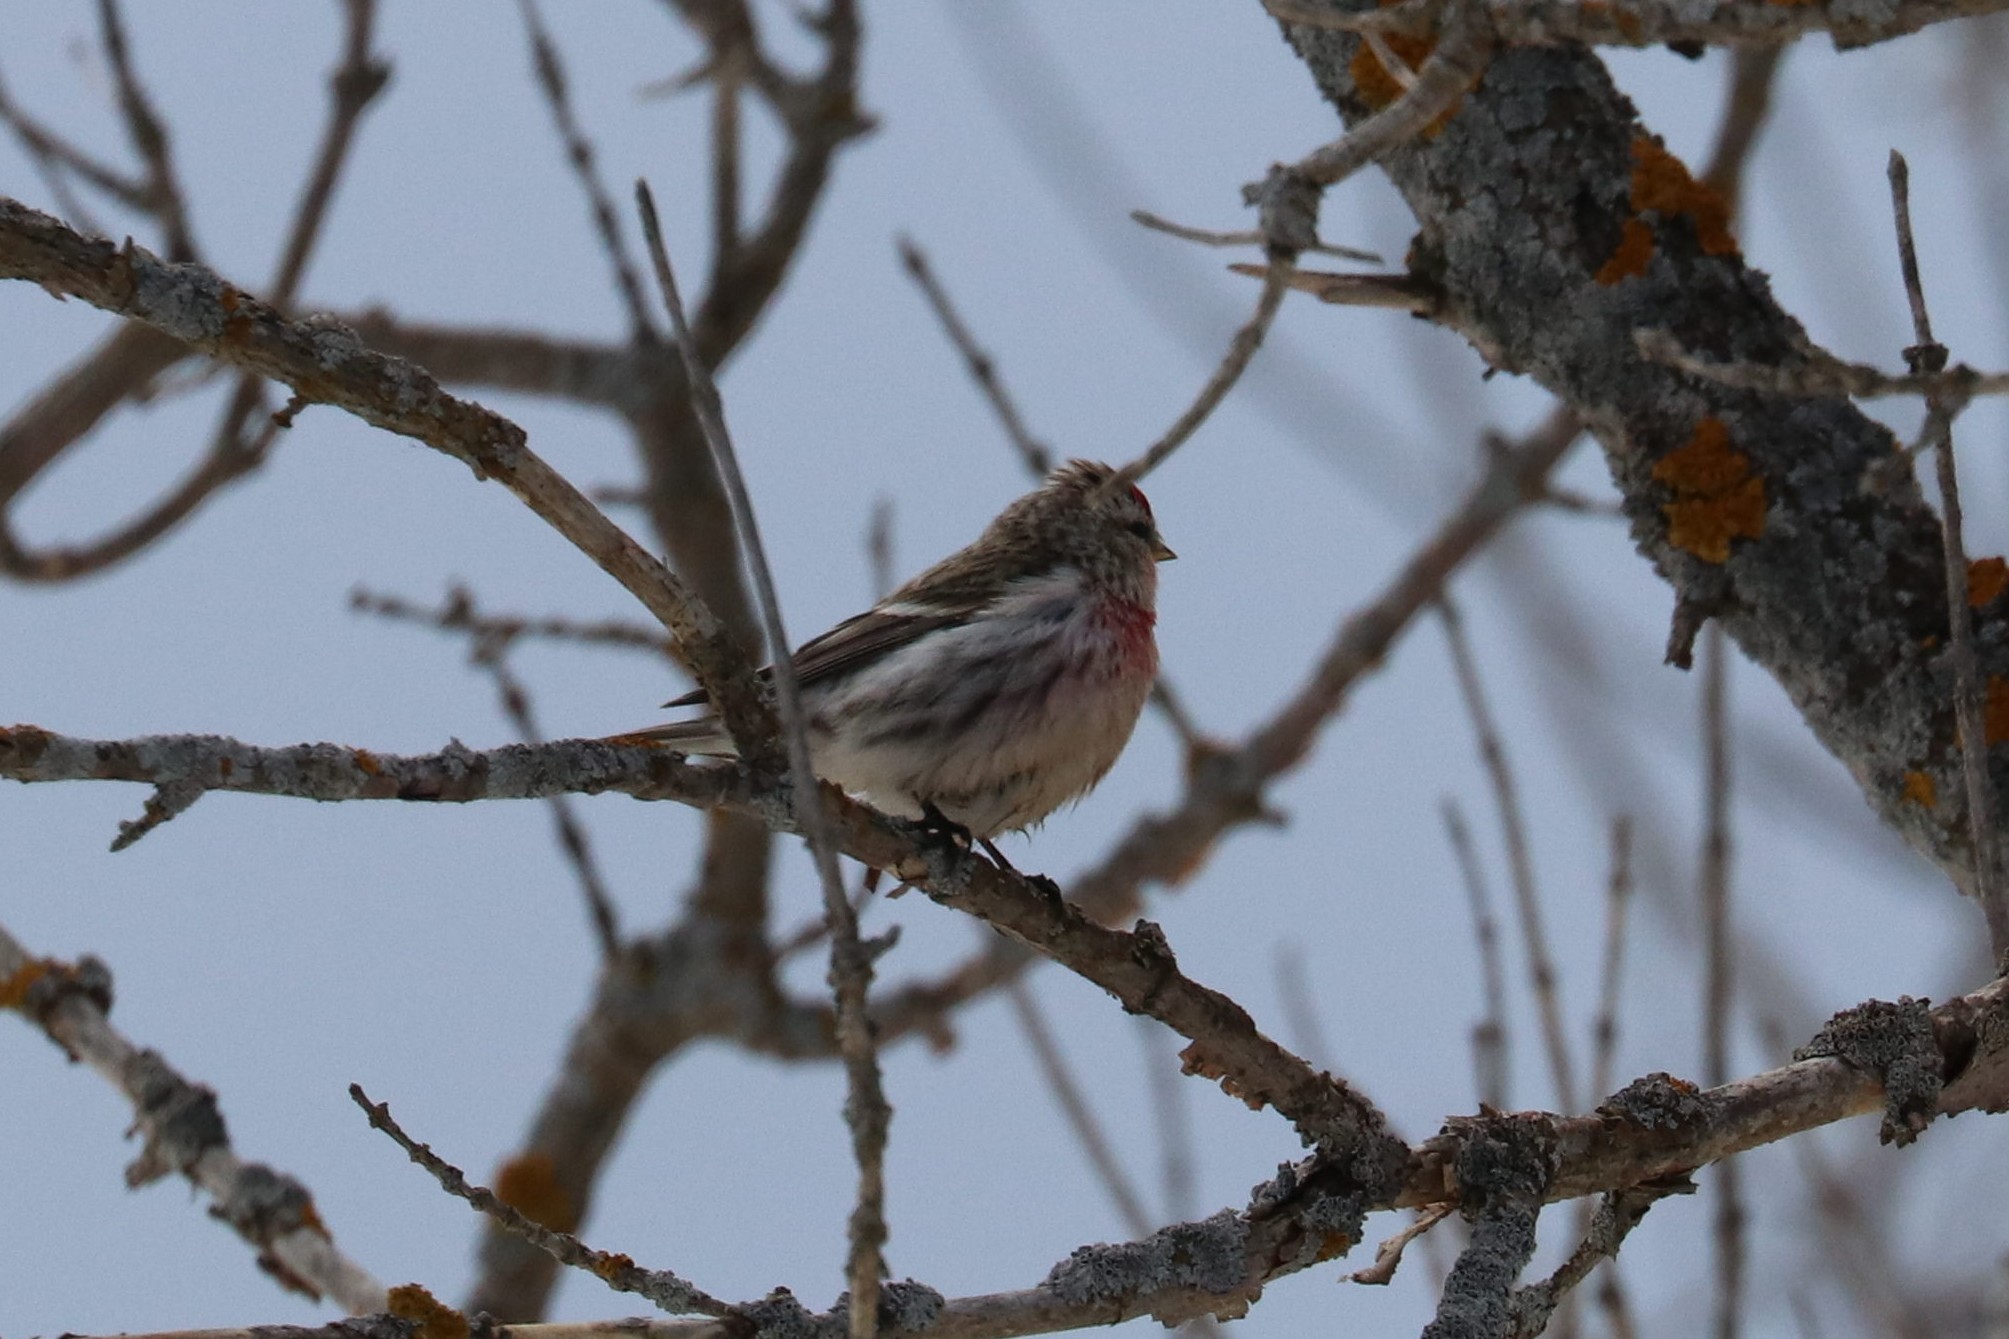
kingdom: Animalia
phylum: Chordata
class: Aves
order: Passeriformes
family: Fringillidae
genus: Acanthis
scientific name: Acanthis flammea
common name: Common redpoll
